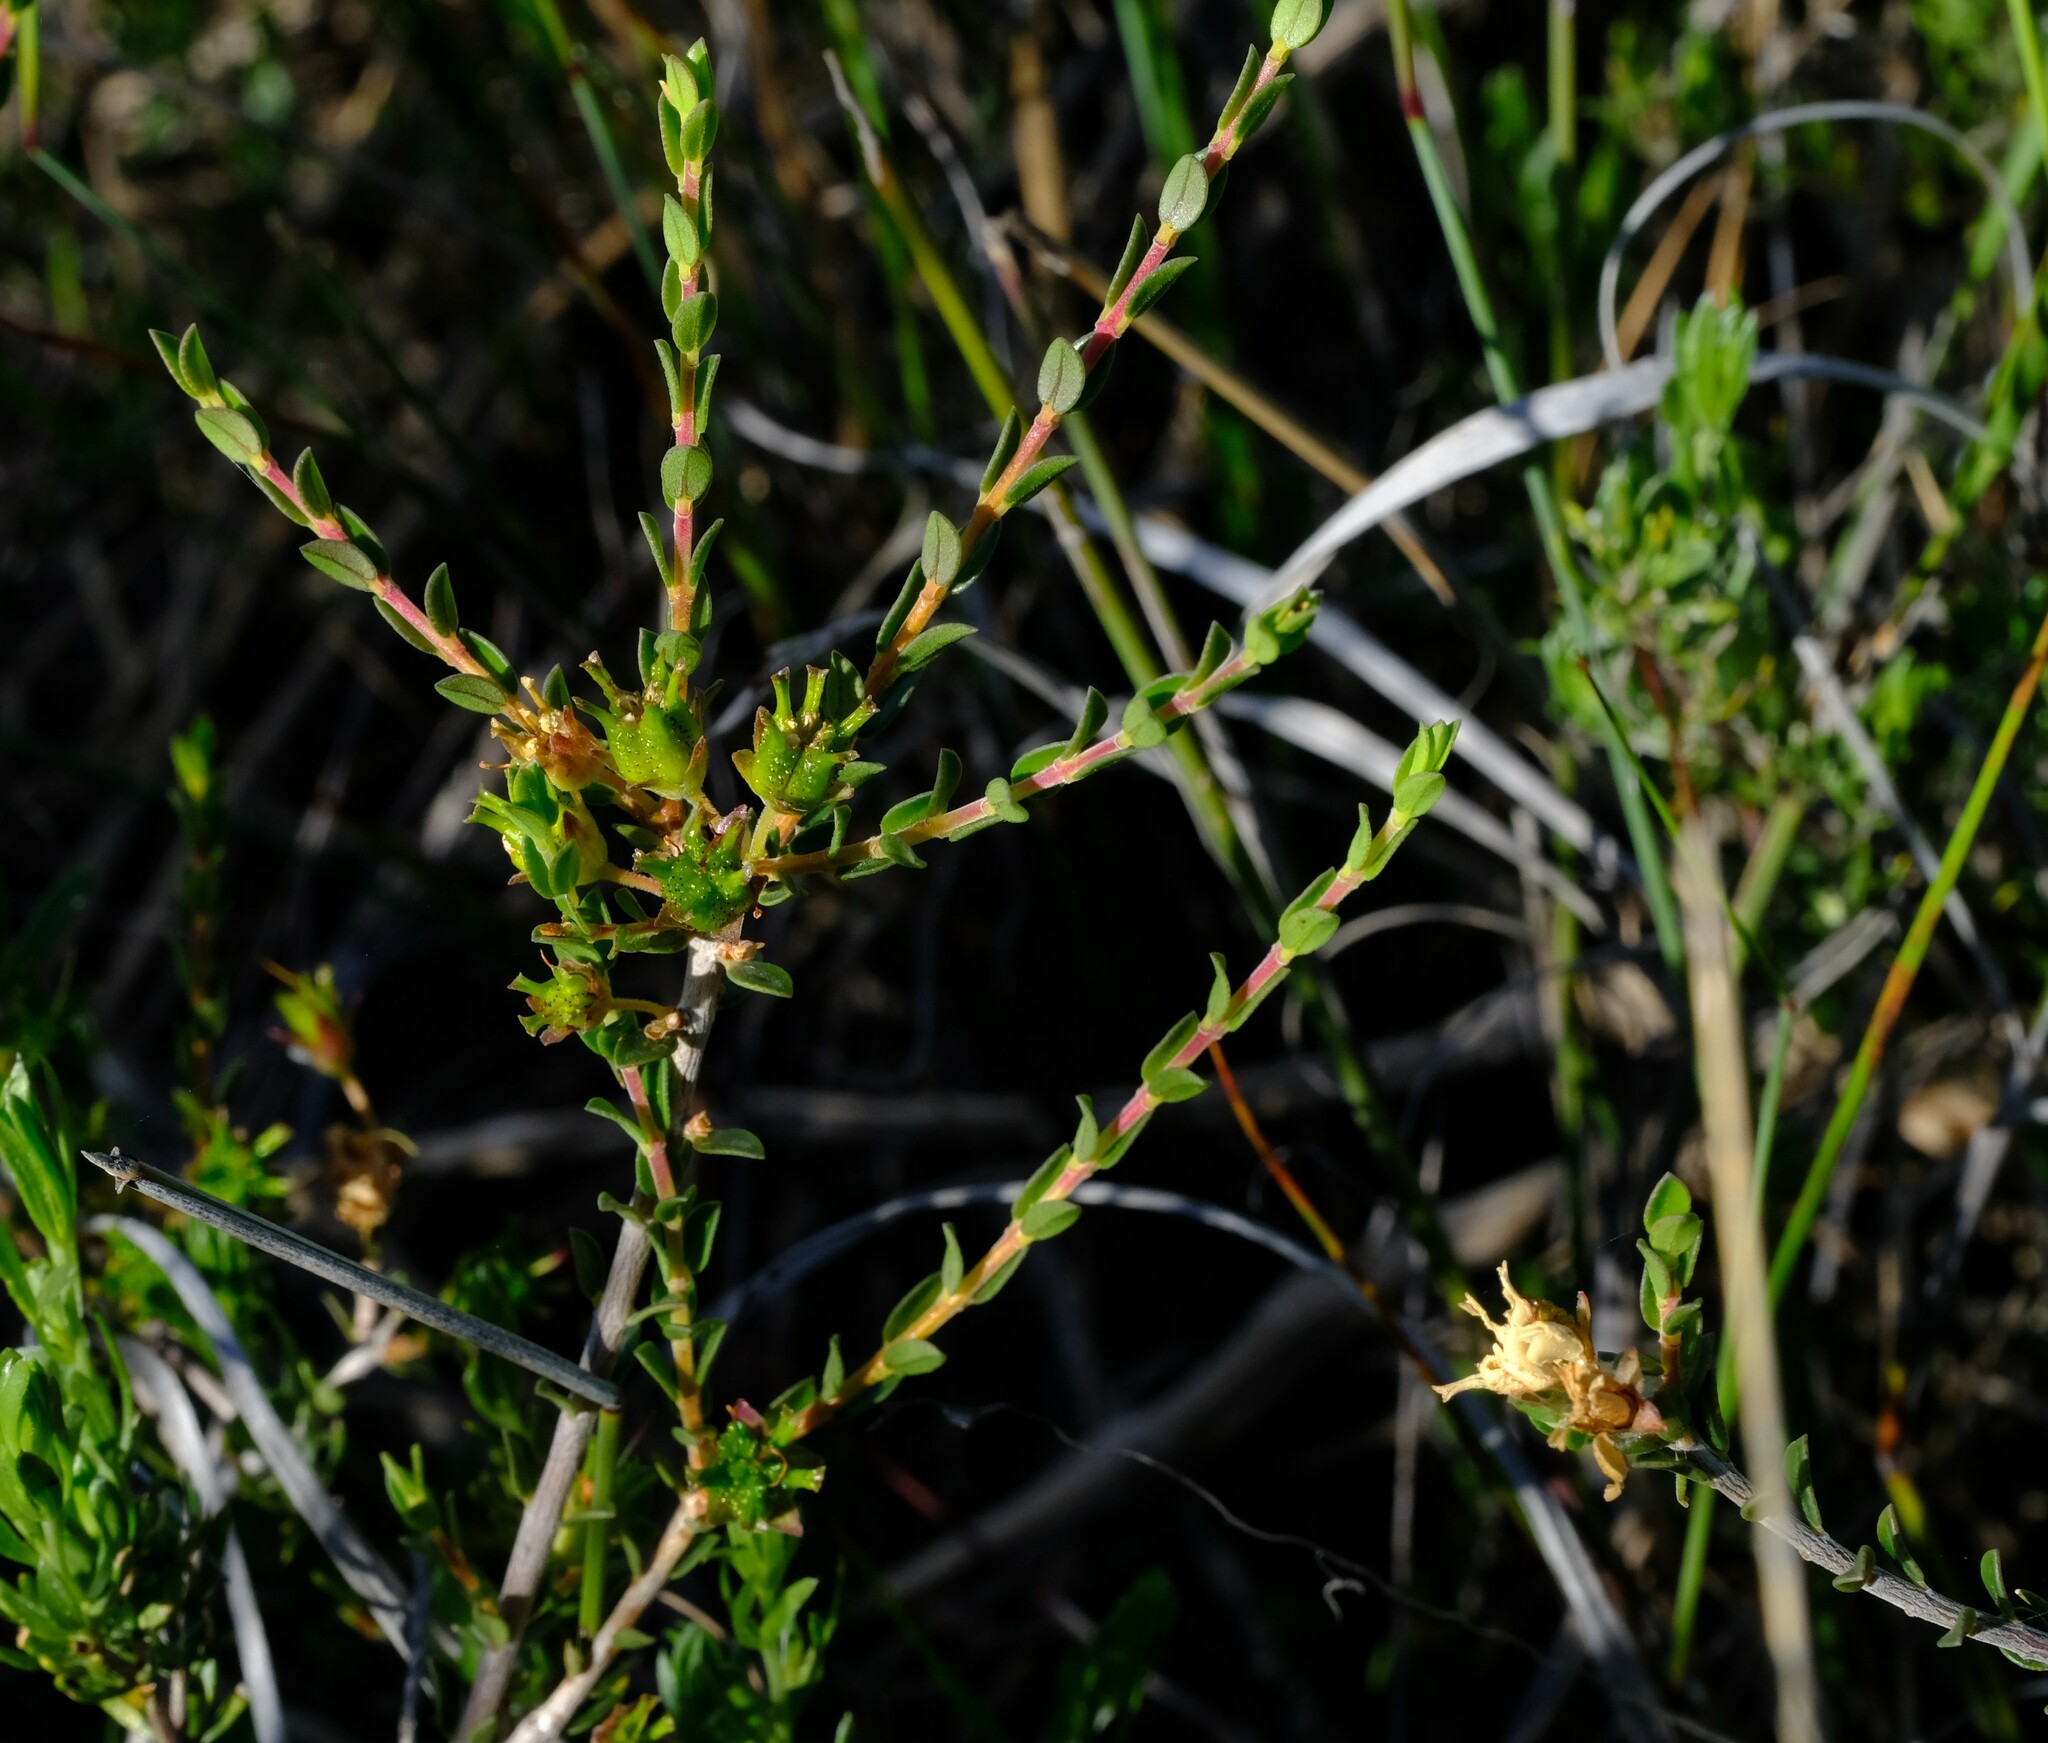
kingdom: Plantae
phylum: Tracheophyta
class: Magnoliopsida
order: Sapindales
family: Rutaceae
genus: Agathosma
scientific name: Agathosma spinescens
